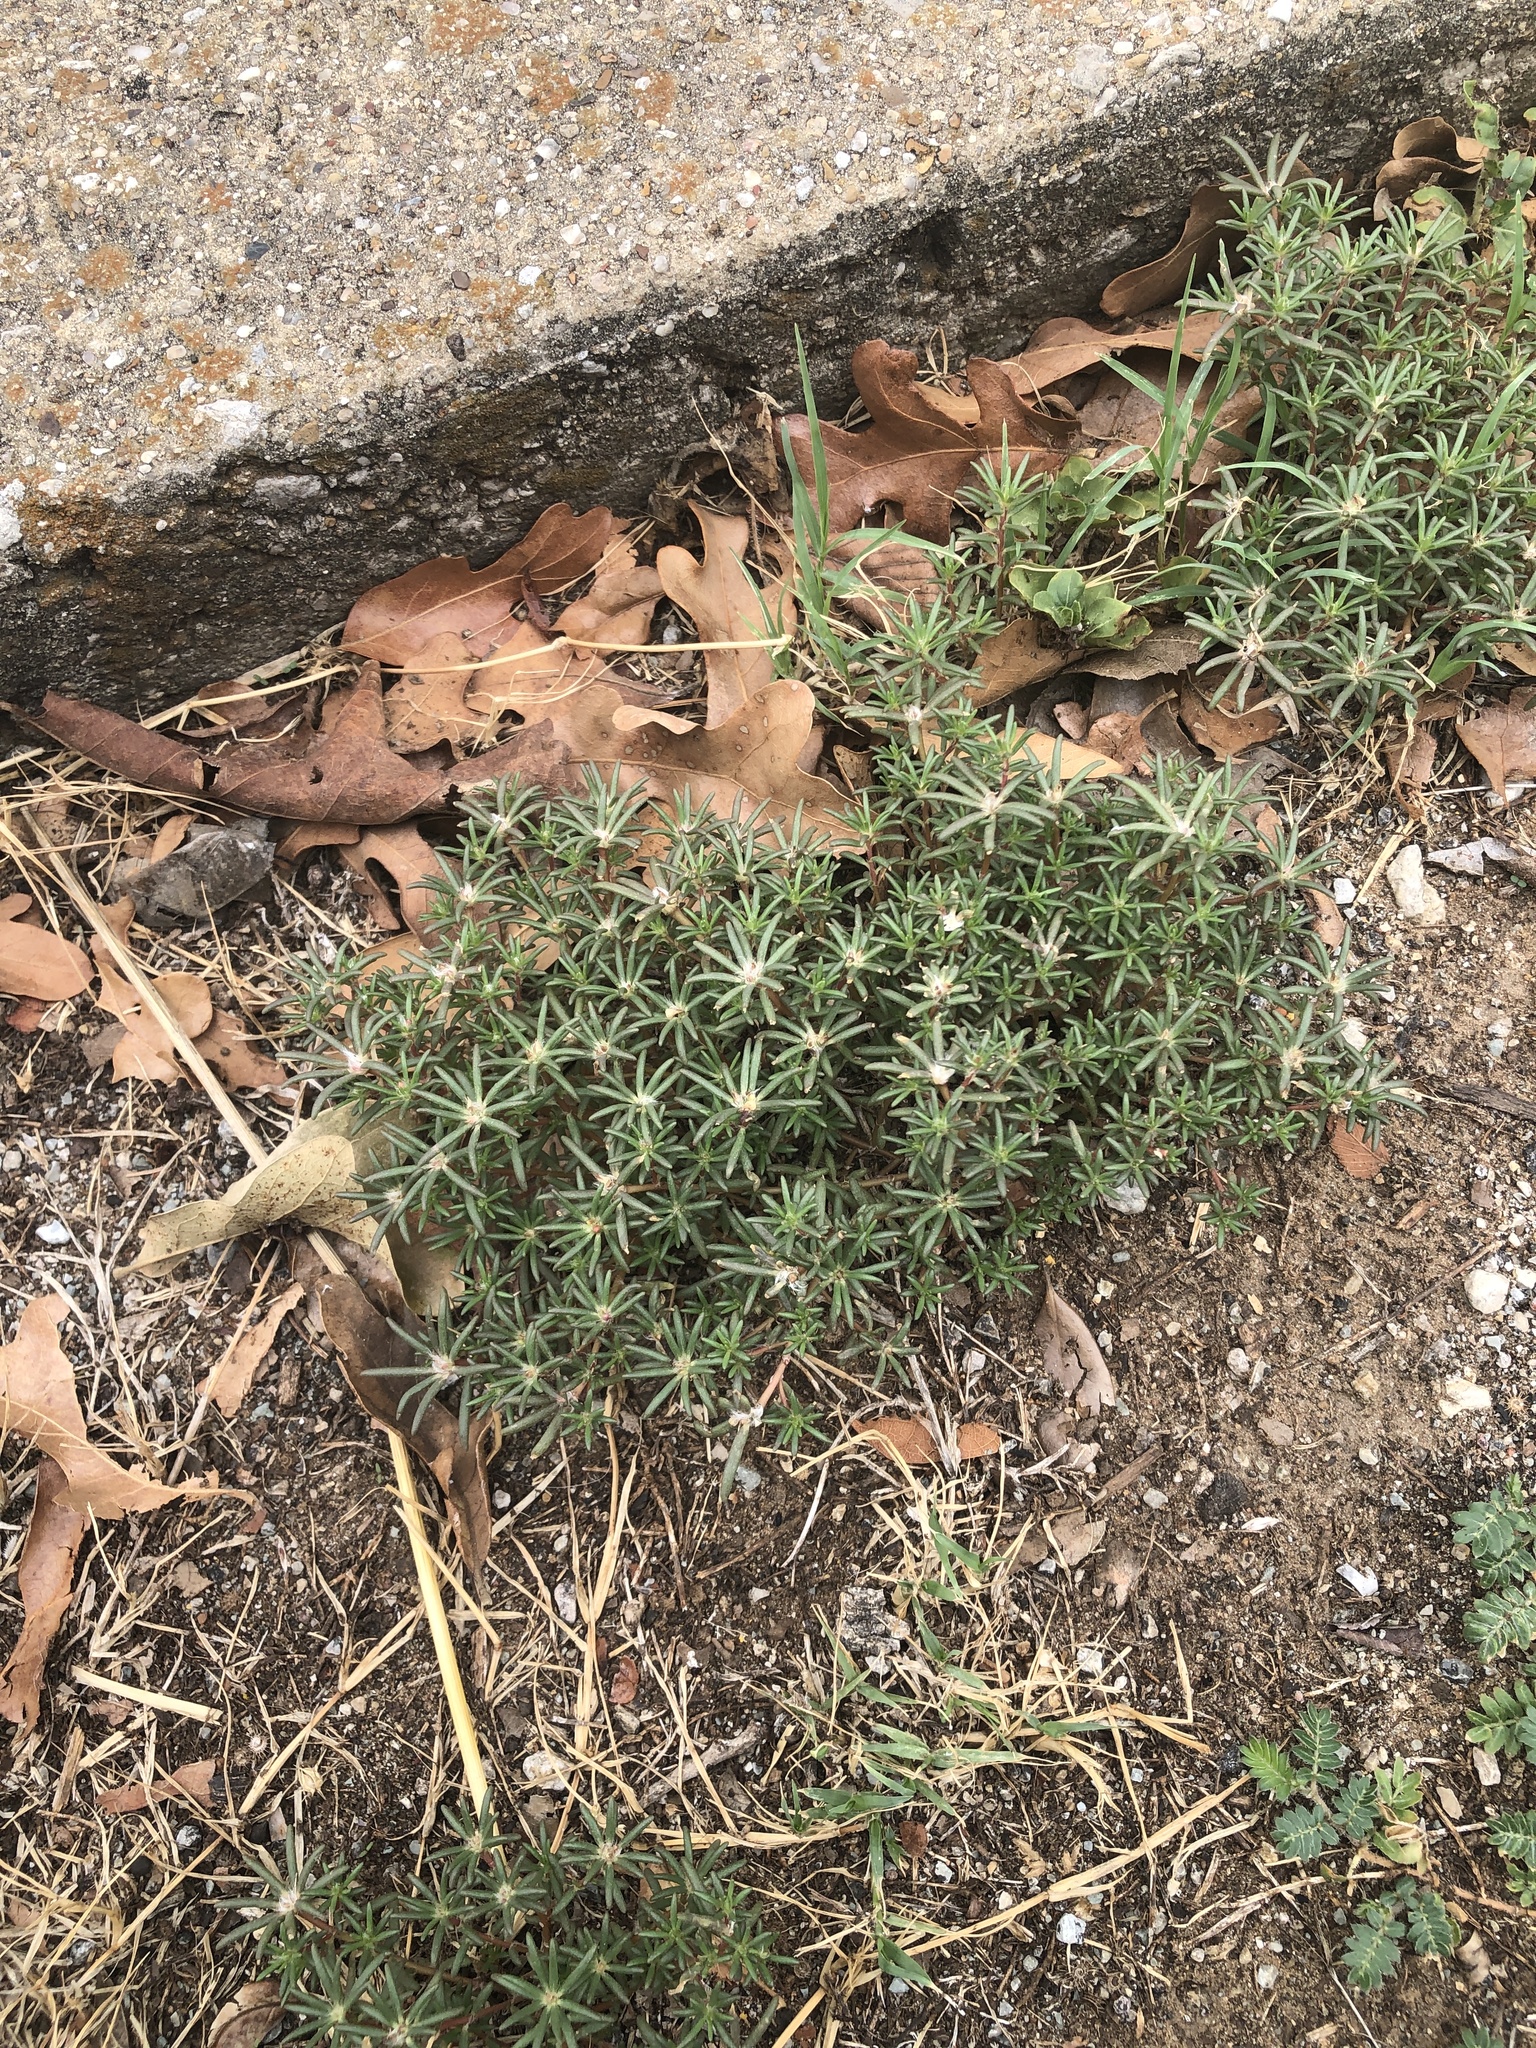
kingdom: Plantae
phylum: Tracheophyta
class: Magnoliopsida
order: Caryophyllales
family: Portulacaceae
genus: Portulaca
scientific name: Portulaca pilosa
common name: Kiss me quick
